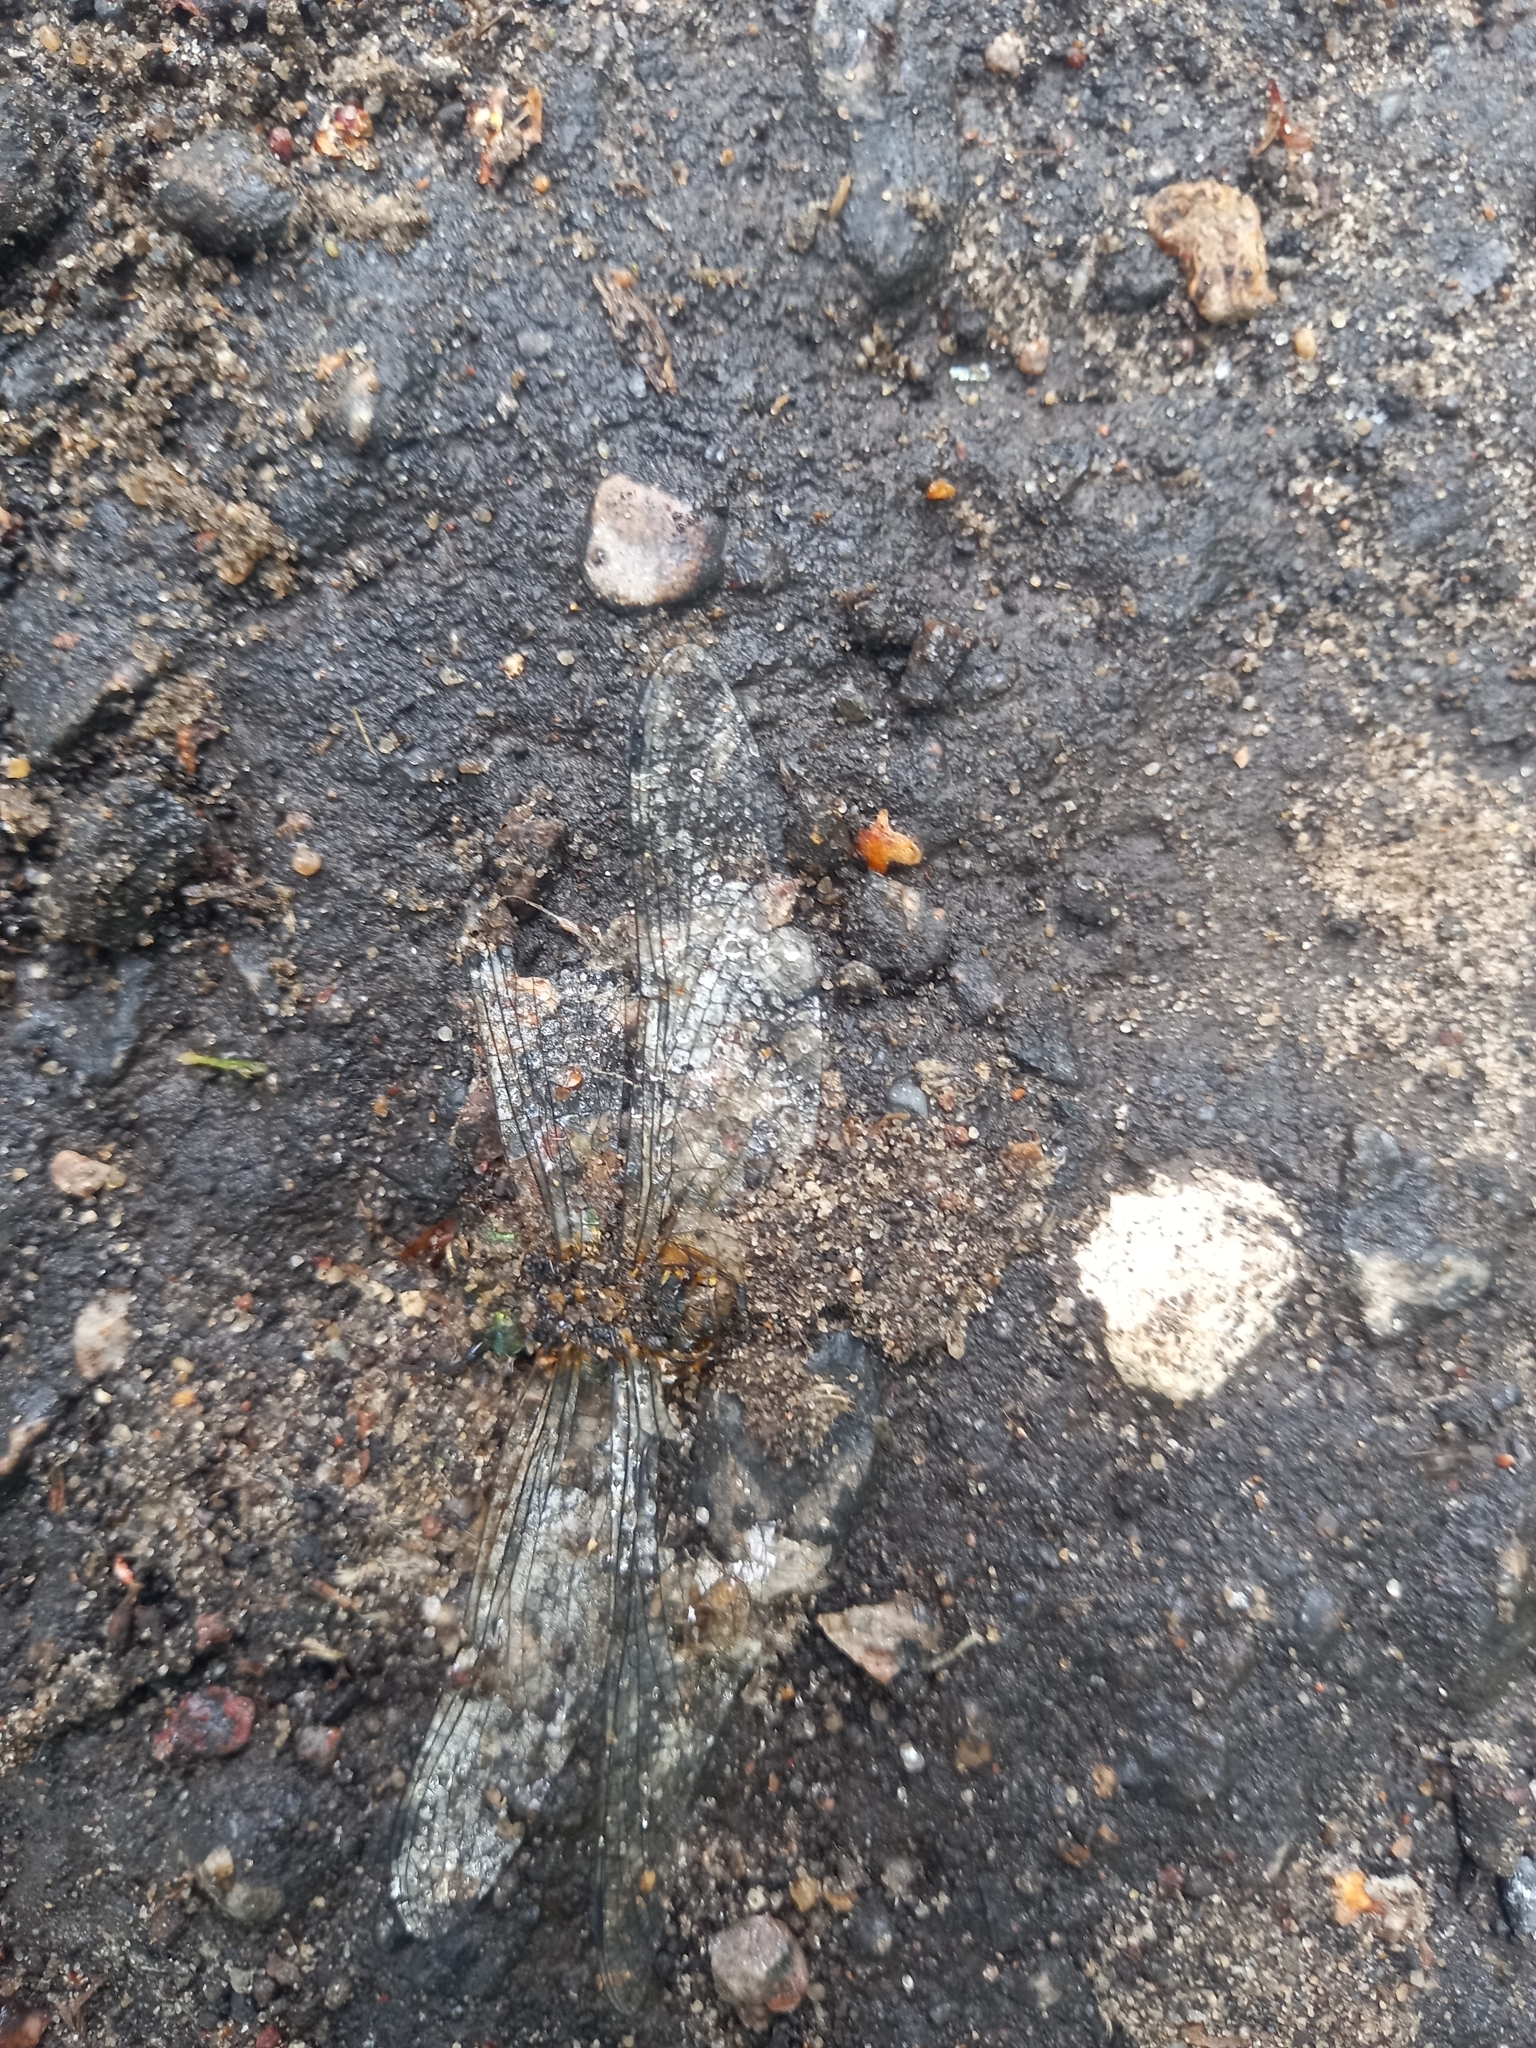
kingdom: Animalia
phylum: Arthropoda
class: Insecta
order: Odonata
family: Corduliidae
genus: Epitheca
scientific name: Epitheca bimaculata
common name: Eurasian baskettail
